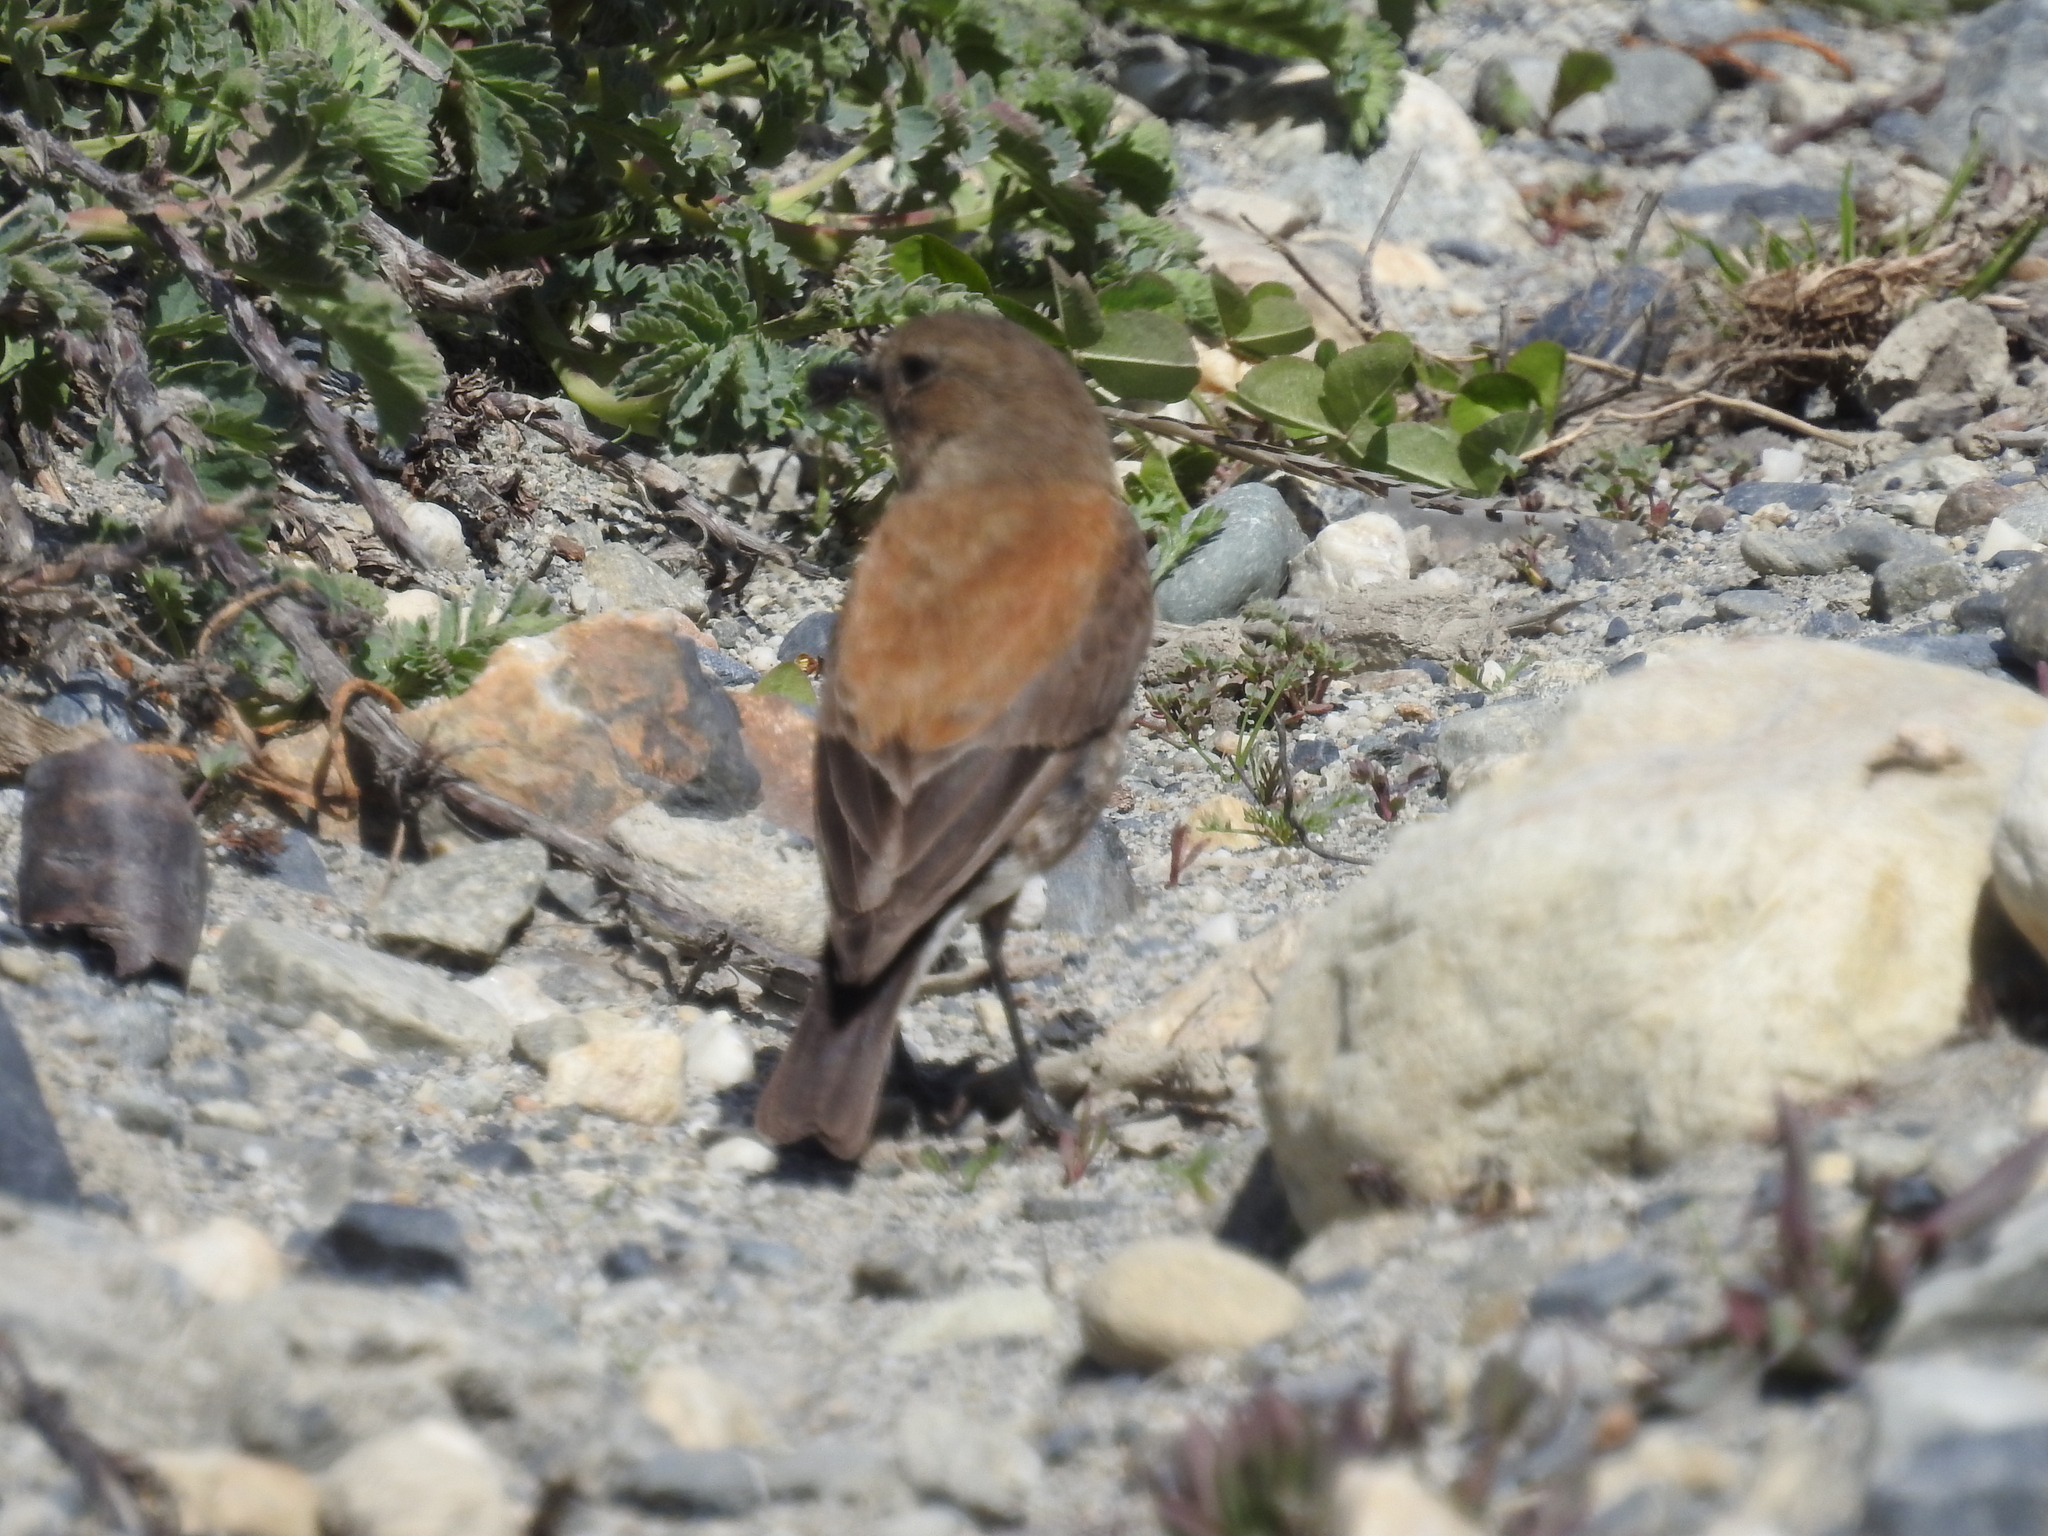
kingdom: Animalia
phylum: Chordata
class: Aves
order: Passeriformes
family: Tyrannidae
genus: Lessonia
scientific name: Lessonia rufa
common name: Austral negrito
